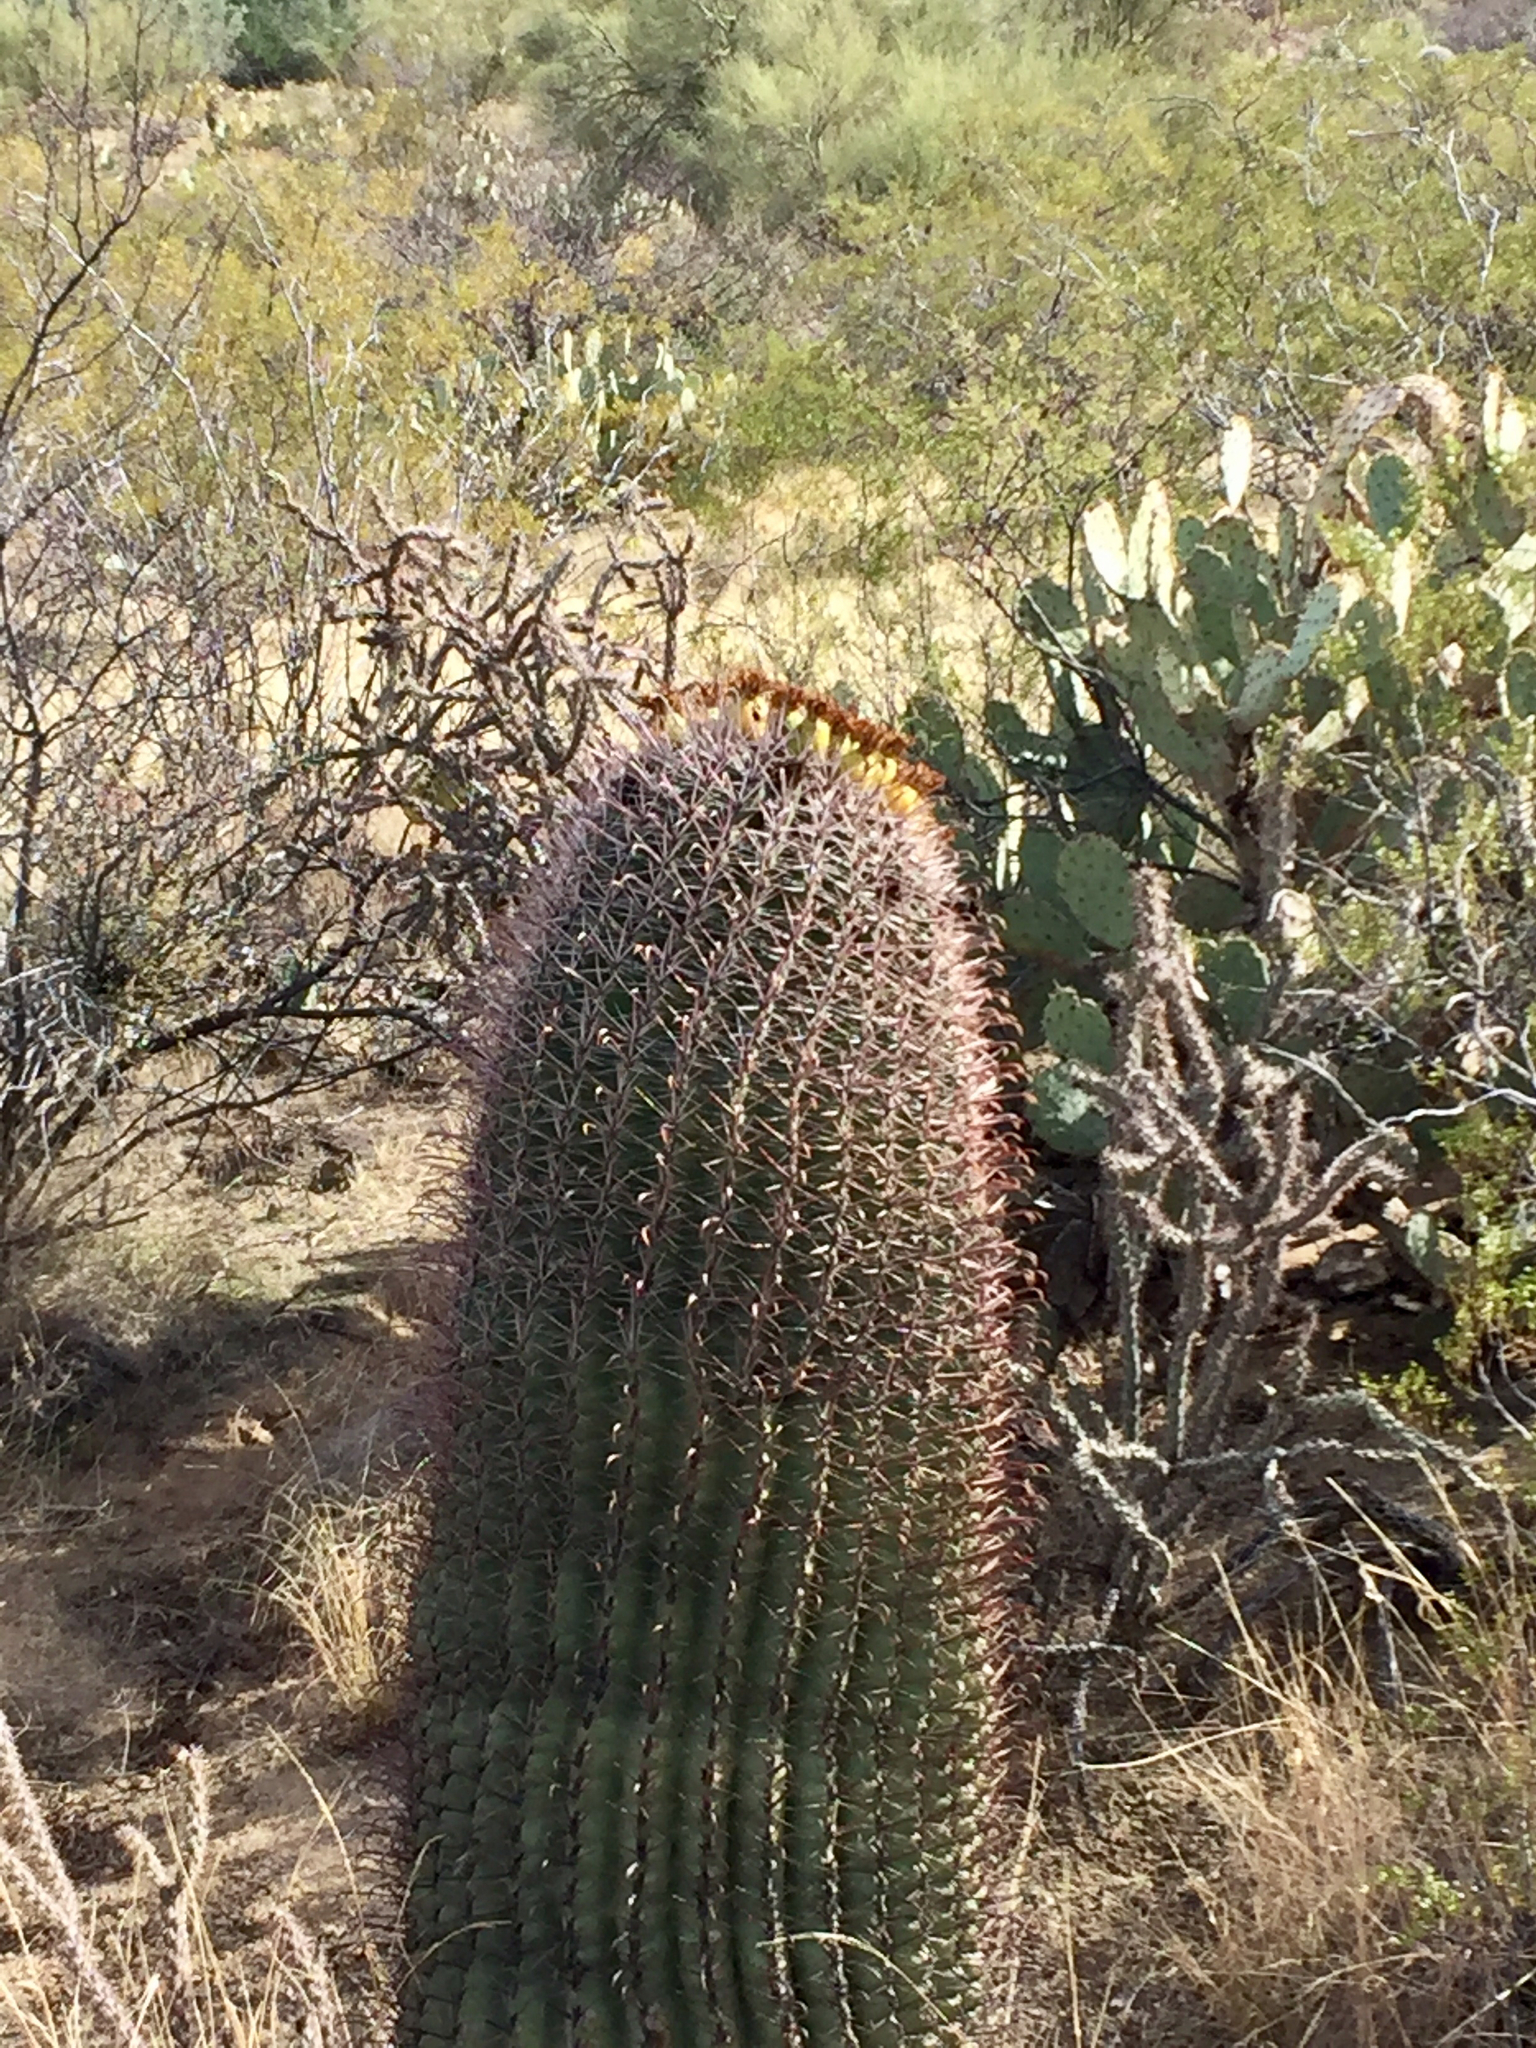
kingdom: Plantae
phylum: Tracheophyta
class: Magnoliopsida
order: Caryophyllales
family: Cactaceae
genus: Ferocactus
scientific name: Ferocactus wislizeni
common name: Candy barrel cactus
